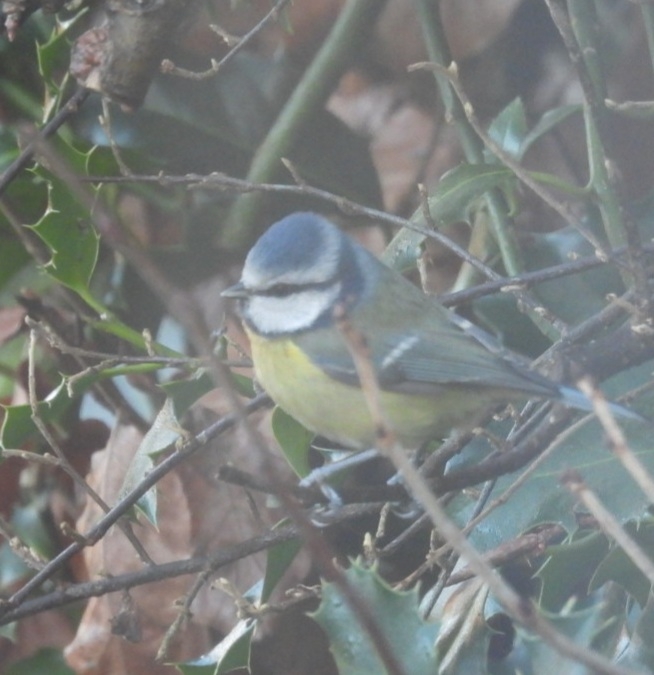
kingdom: Animalia
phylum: Chordata
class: Aves
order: Passeriformes
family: Paridae
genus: Cyanistes
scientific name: Cyanistes caeruleus
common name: Eurasian blue tit
